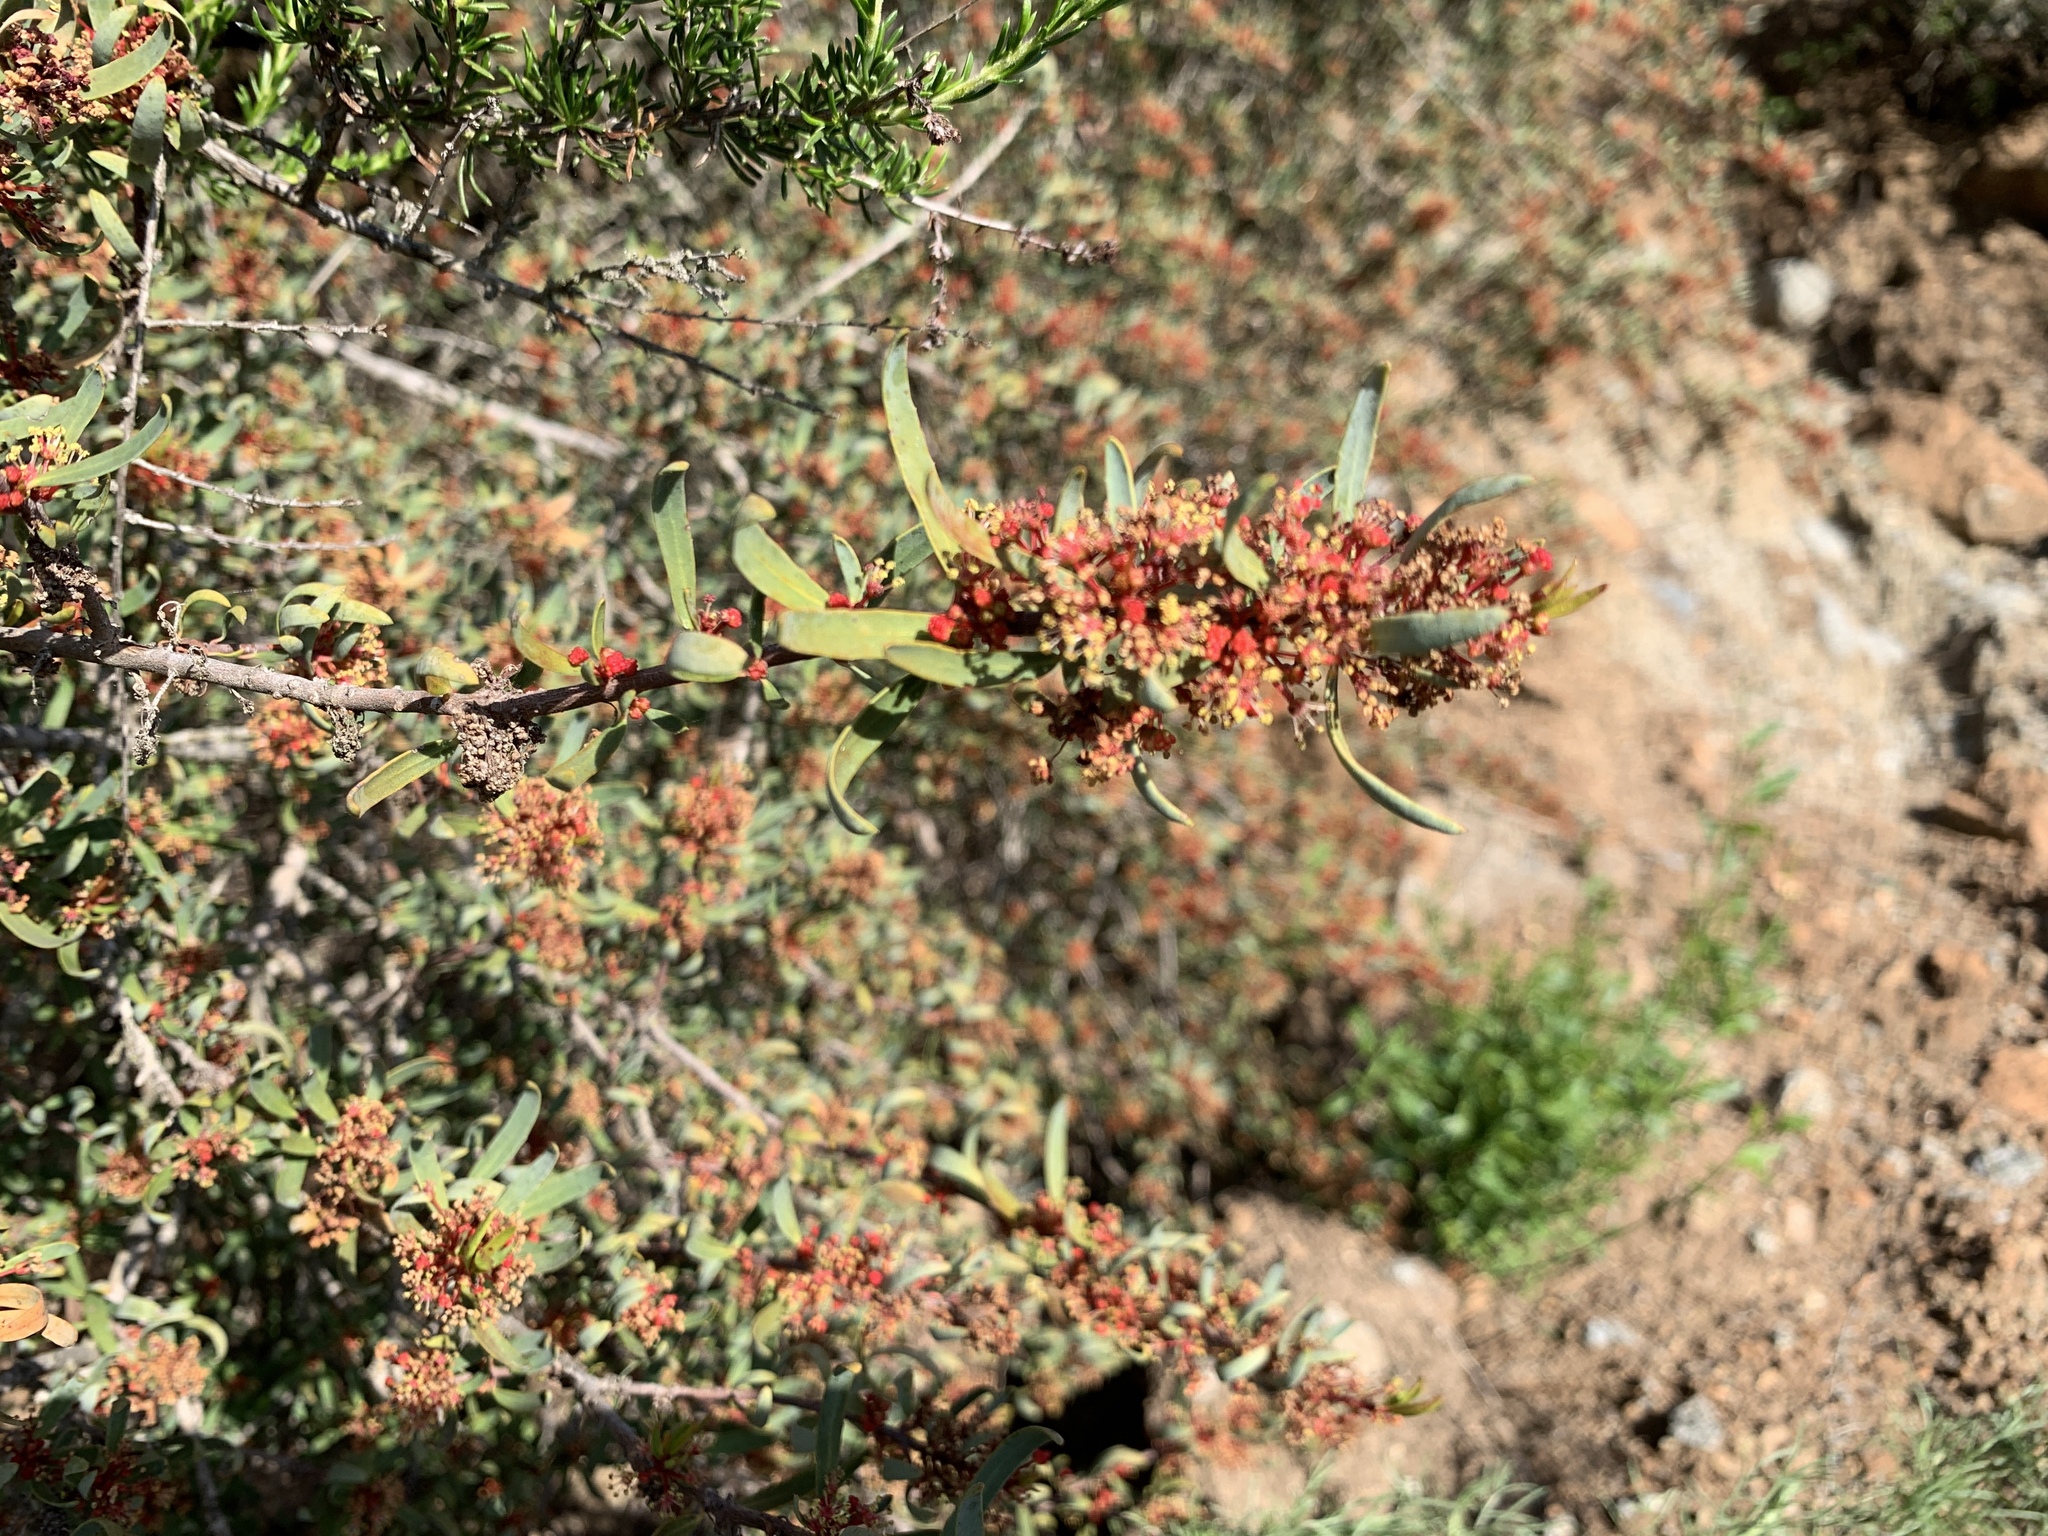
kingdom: Plantae
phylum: Tracheophyta
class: Magnoliopsida
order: Malpighiales
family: Picrodendraceae
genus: Tetracoccus
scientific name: Tetracoccus dioicus
